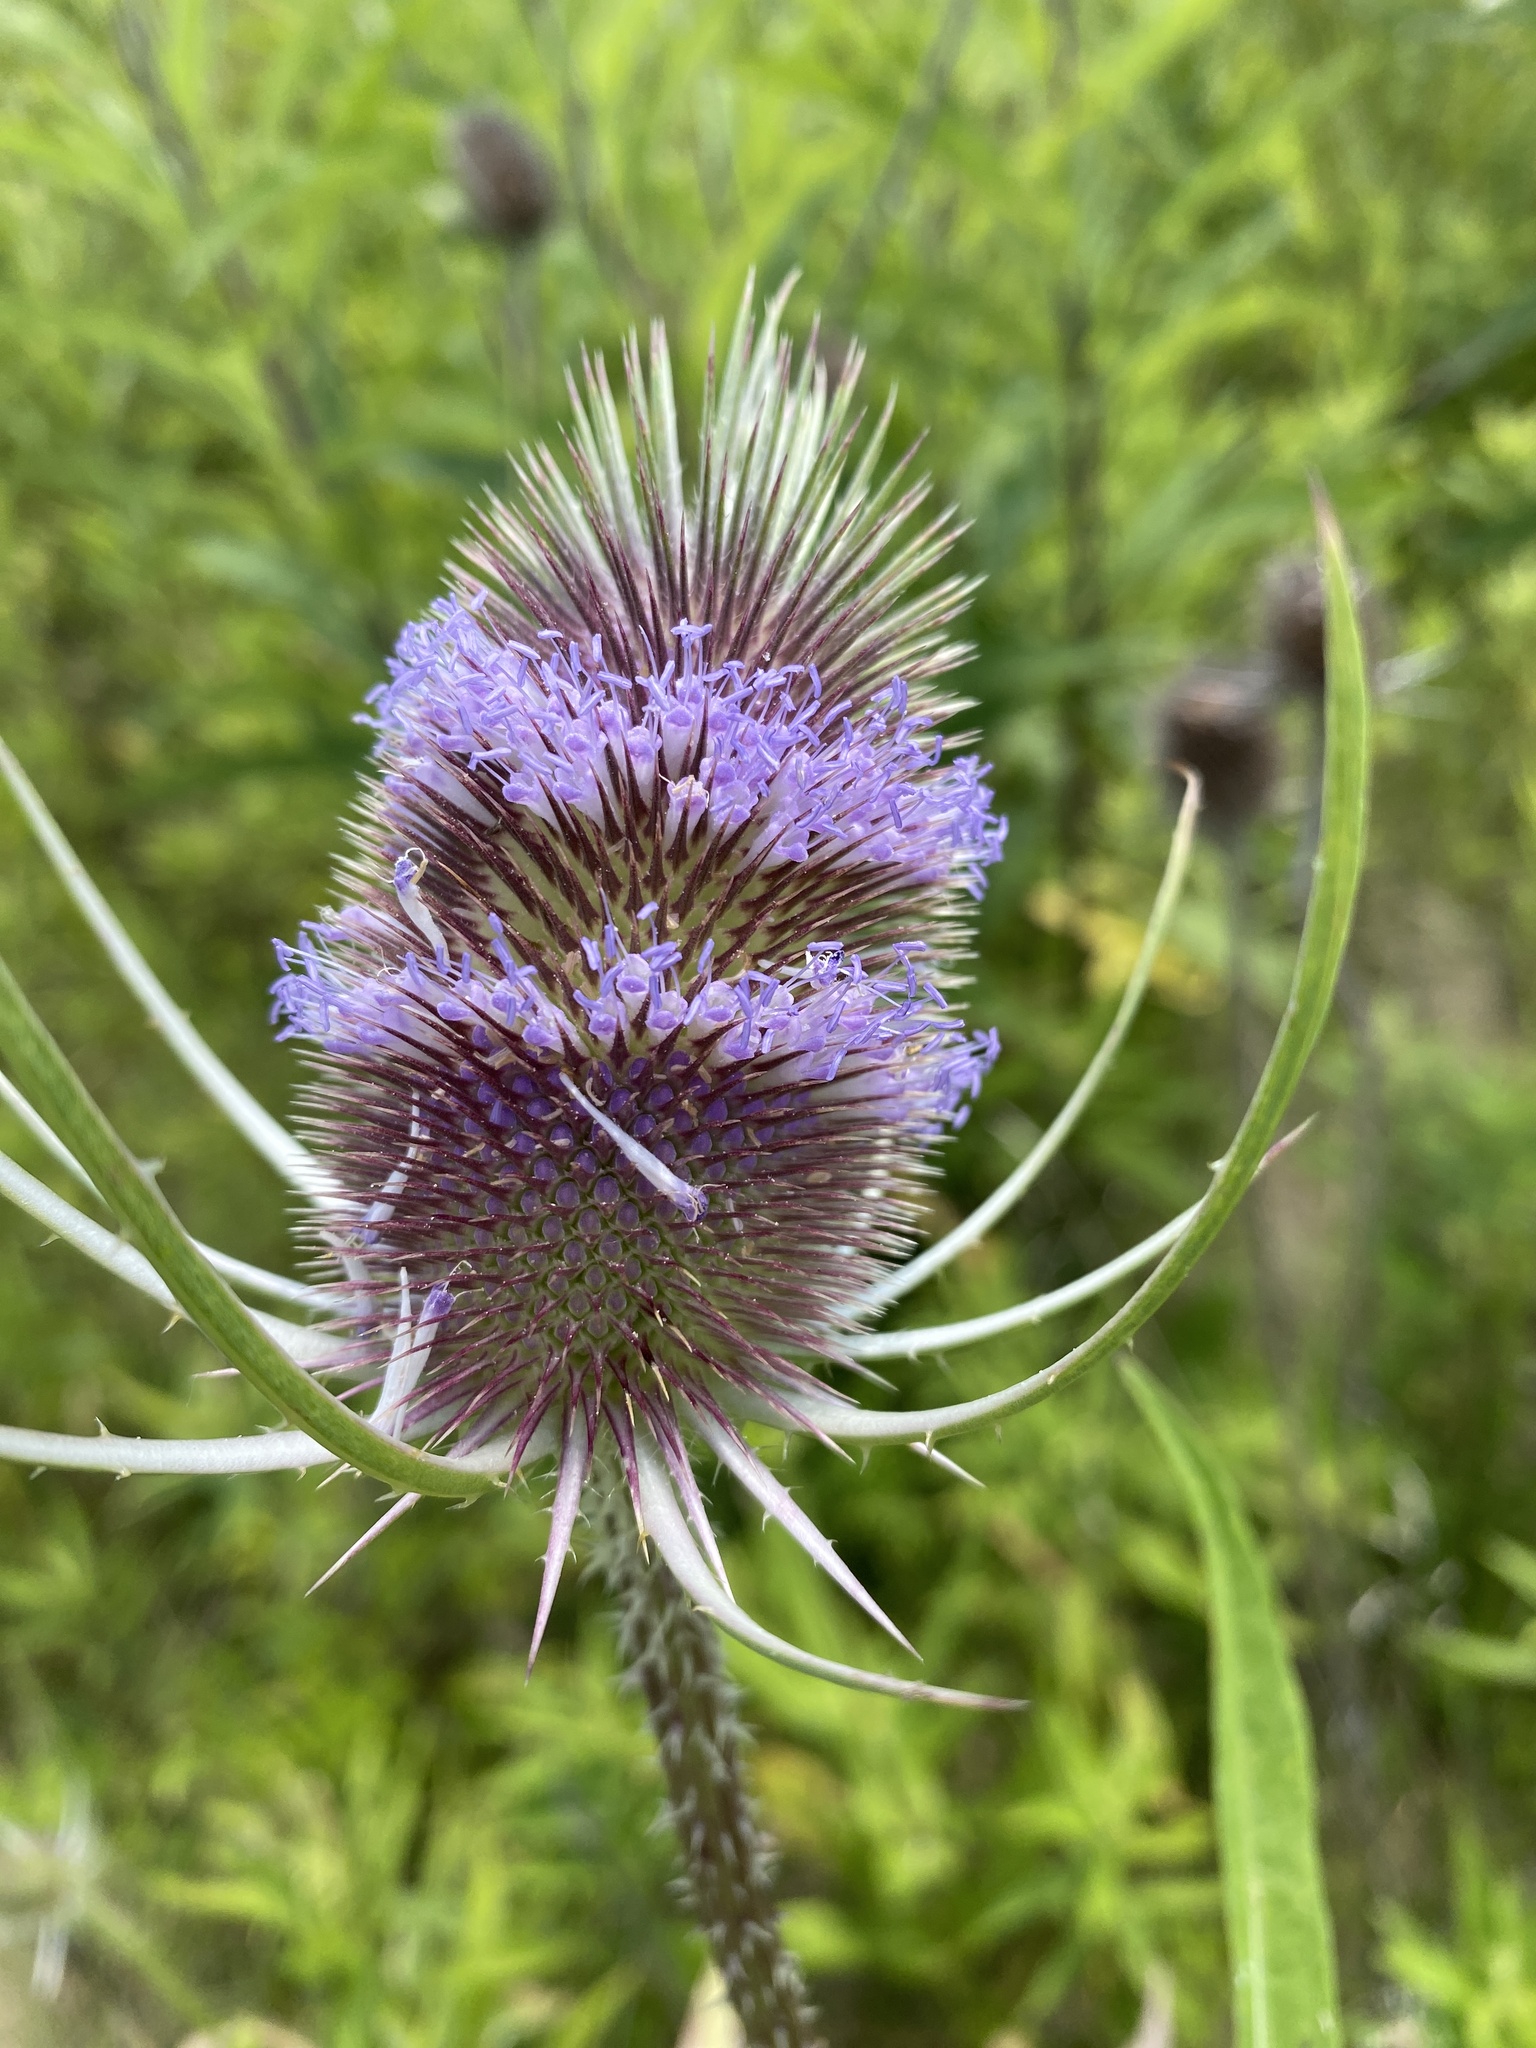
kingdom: Plantae
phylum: Tracheophyta
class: Magnoliopsida
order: Dipsacales
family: Caprifoliaceae
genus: Dipsacus
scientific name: Dipsacus fullonum
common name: Teasel
